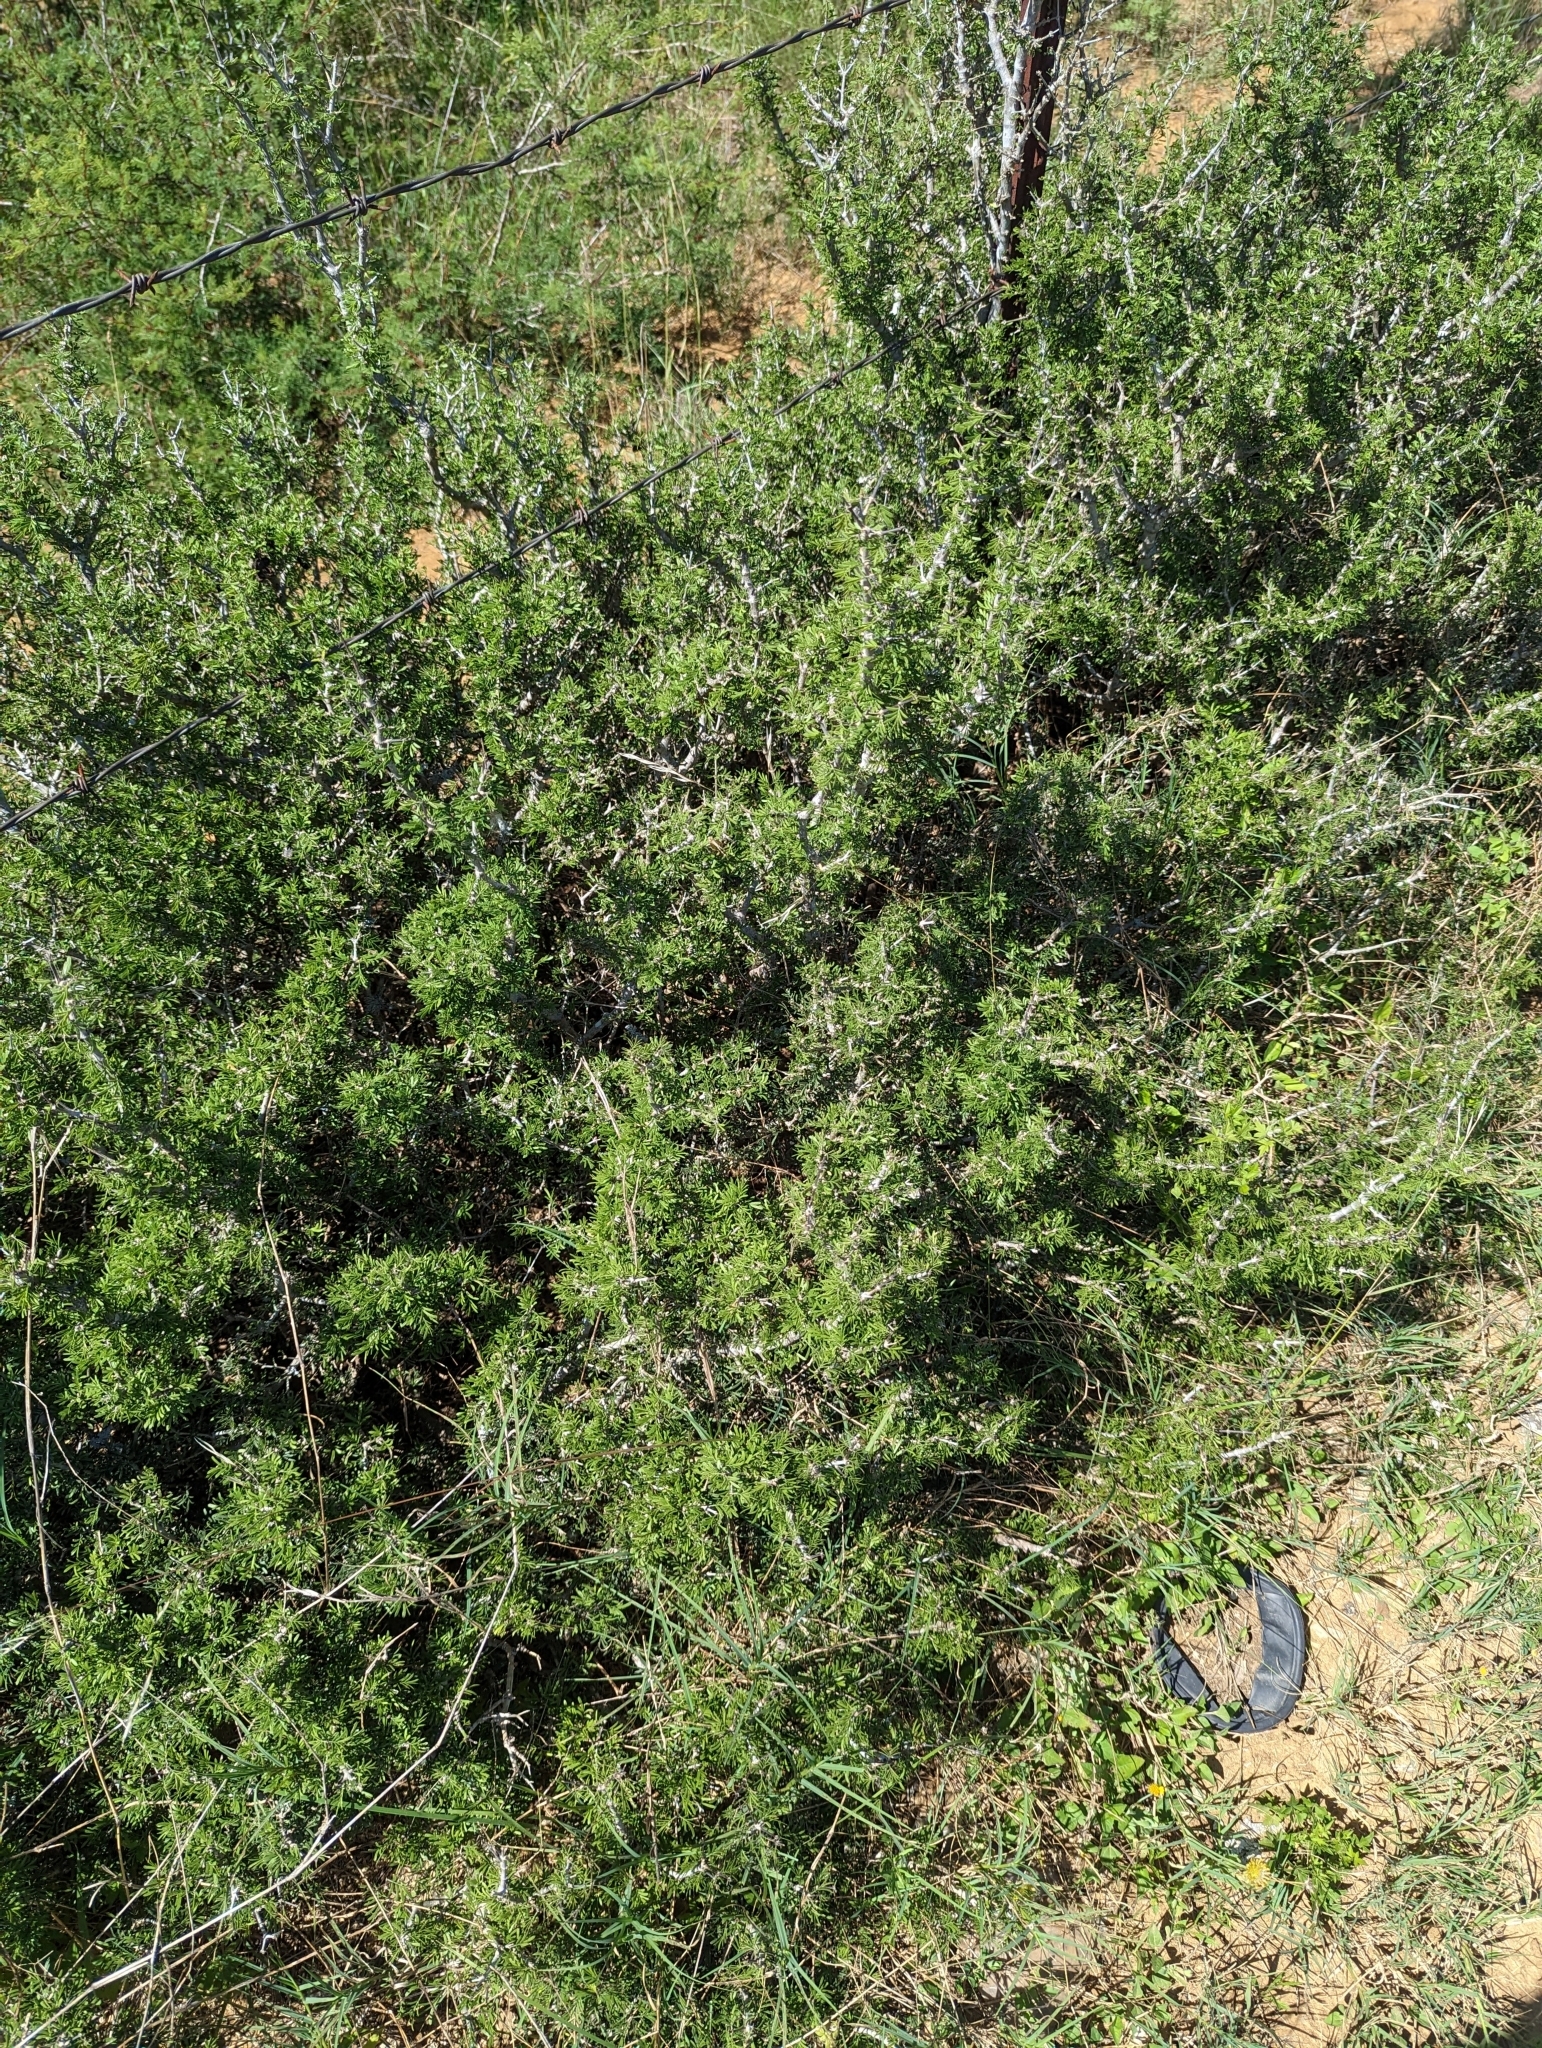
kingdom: Plantae
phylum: Tracheophyta
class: Magnoliopsida
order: Zygophyllales
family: Zygophyllaceae
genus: Porlieria
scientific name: Porlieria angustifolia
